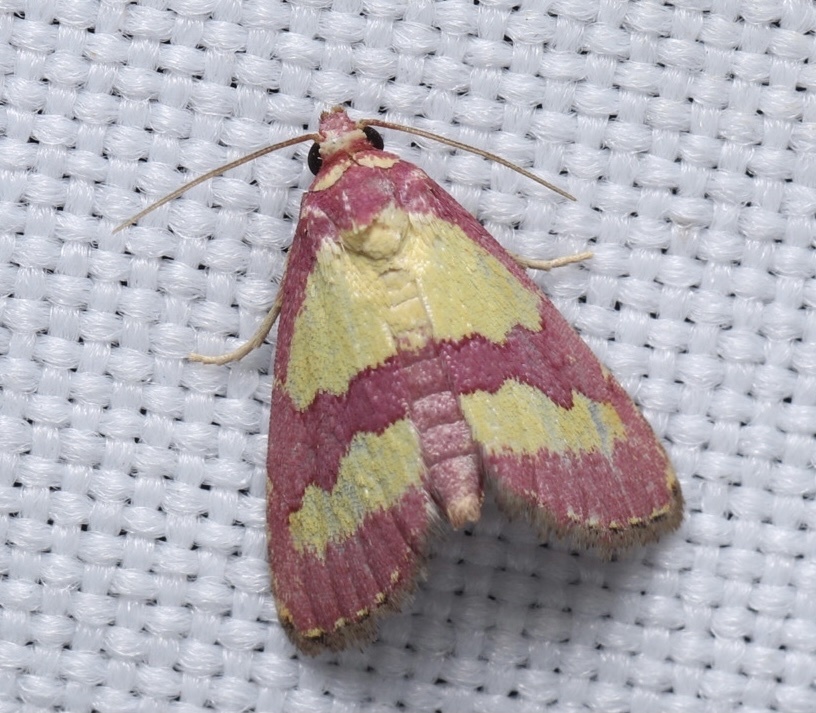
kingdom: Animalia
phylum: Arthropoda
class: Insecta
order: Lepidoptera
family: Noctuidae
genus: Phoenicophanta
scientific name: Phoenicophanta bicolor
